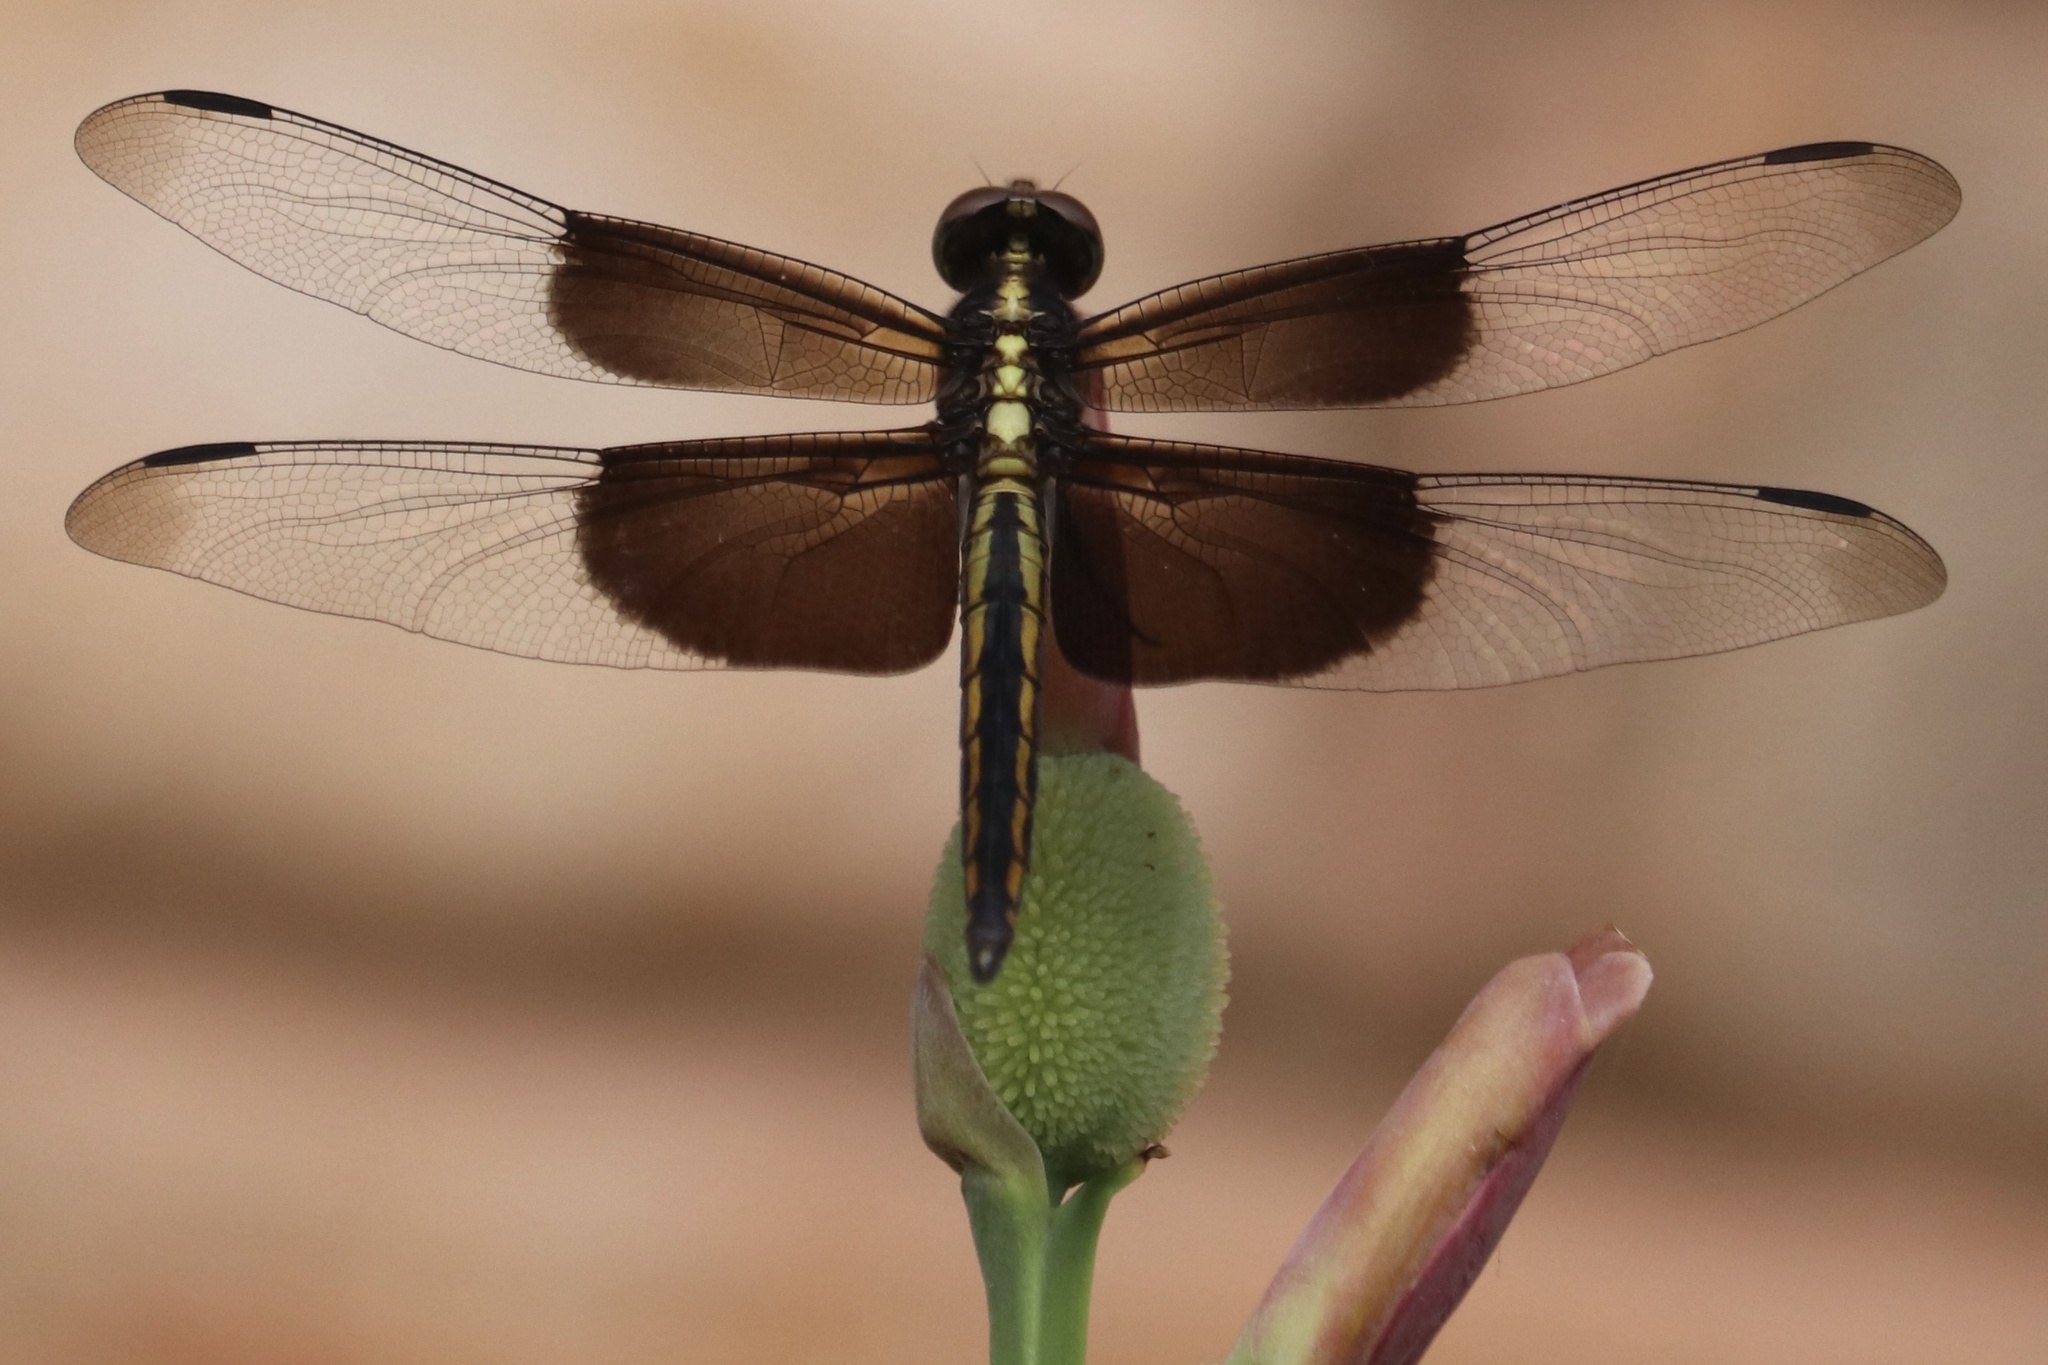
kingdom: Animalia
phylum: Arthropoda
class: Insecta
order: Odonata
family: Libellulidae
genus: Libellula
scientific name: Libellula luctuosa
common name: Widow skimmer
